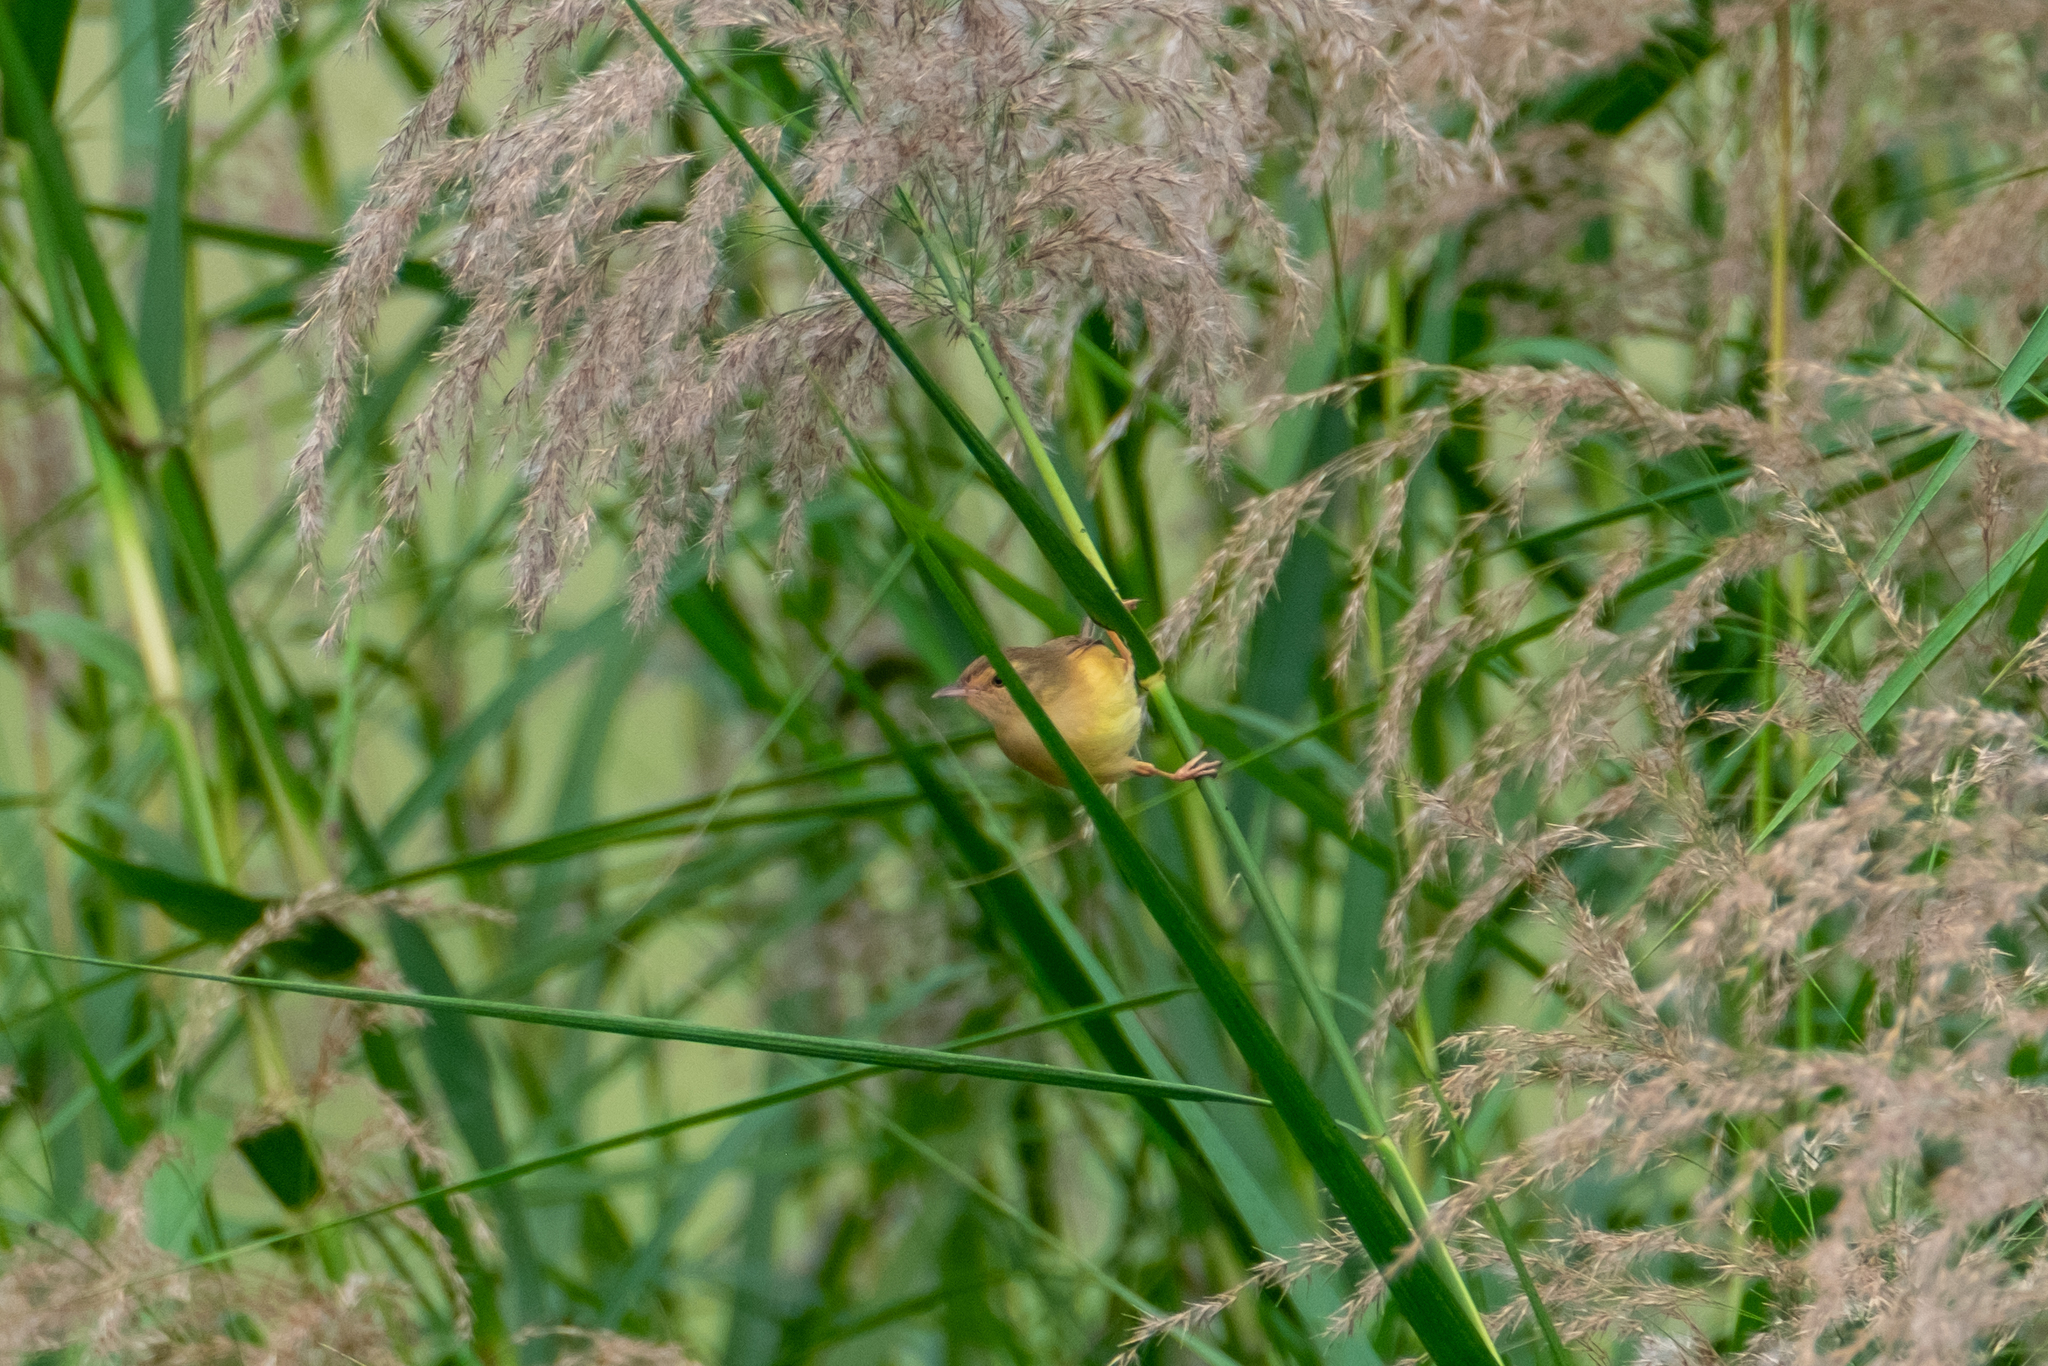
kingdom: Animalia
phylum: Chordata
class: Aves
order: Passeriformes
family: Cisticolidae
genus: Prinia
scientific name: Prinia inornata
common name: Plain prinia
